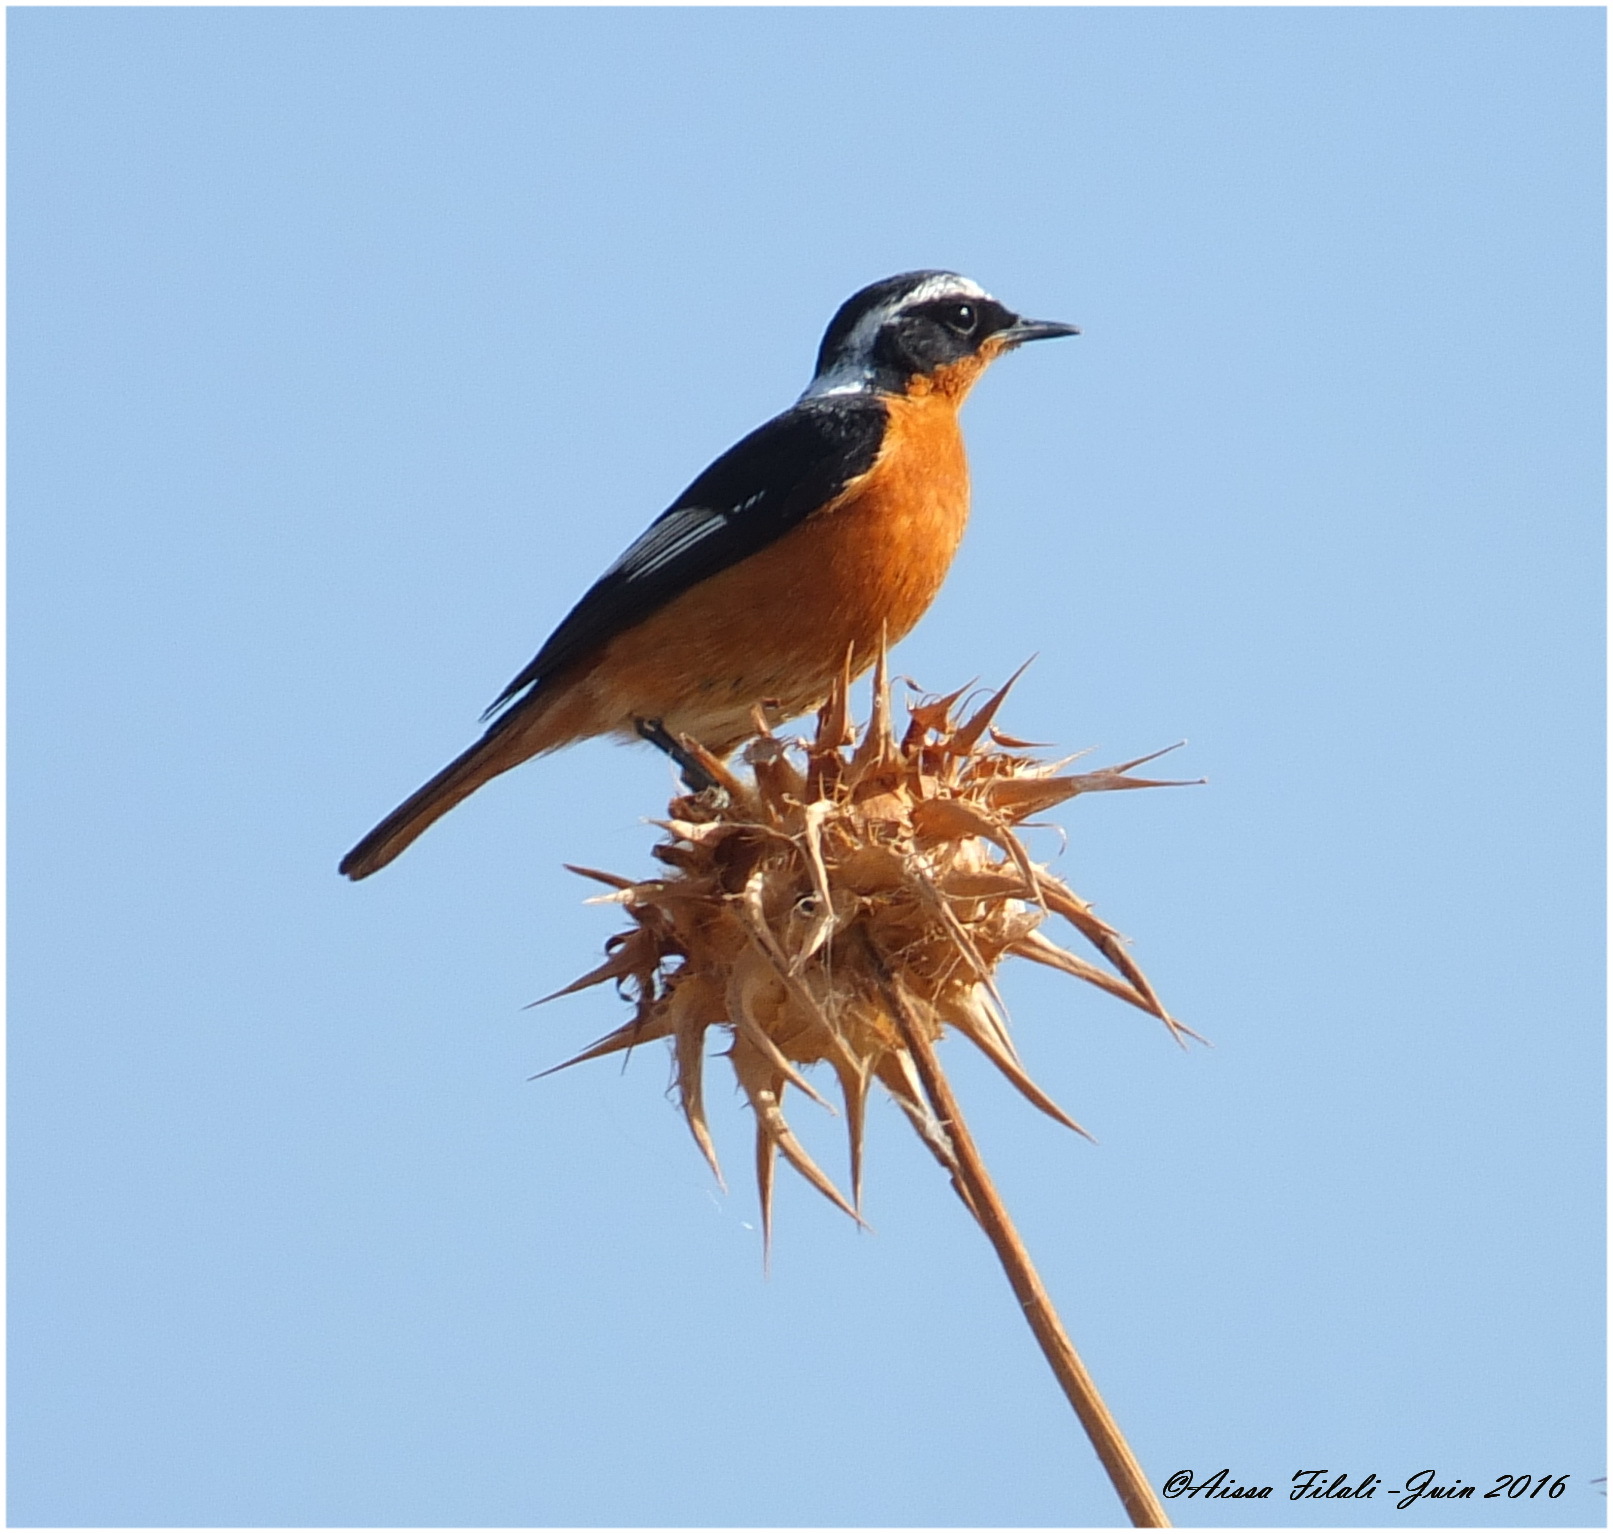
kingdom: Animalia
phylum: Chordata
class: Aves
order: Passeriformes
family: Muscicapidae
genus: Phoenicurus
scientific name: Phoenicurus moussieri
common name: Moussier's redstart
